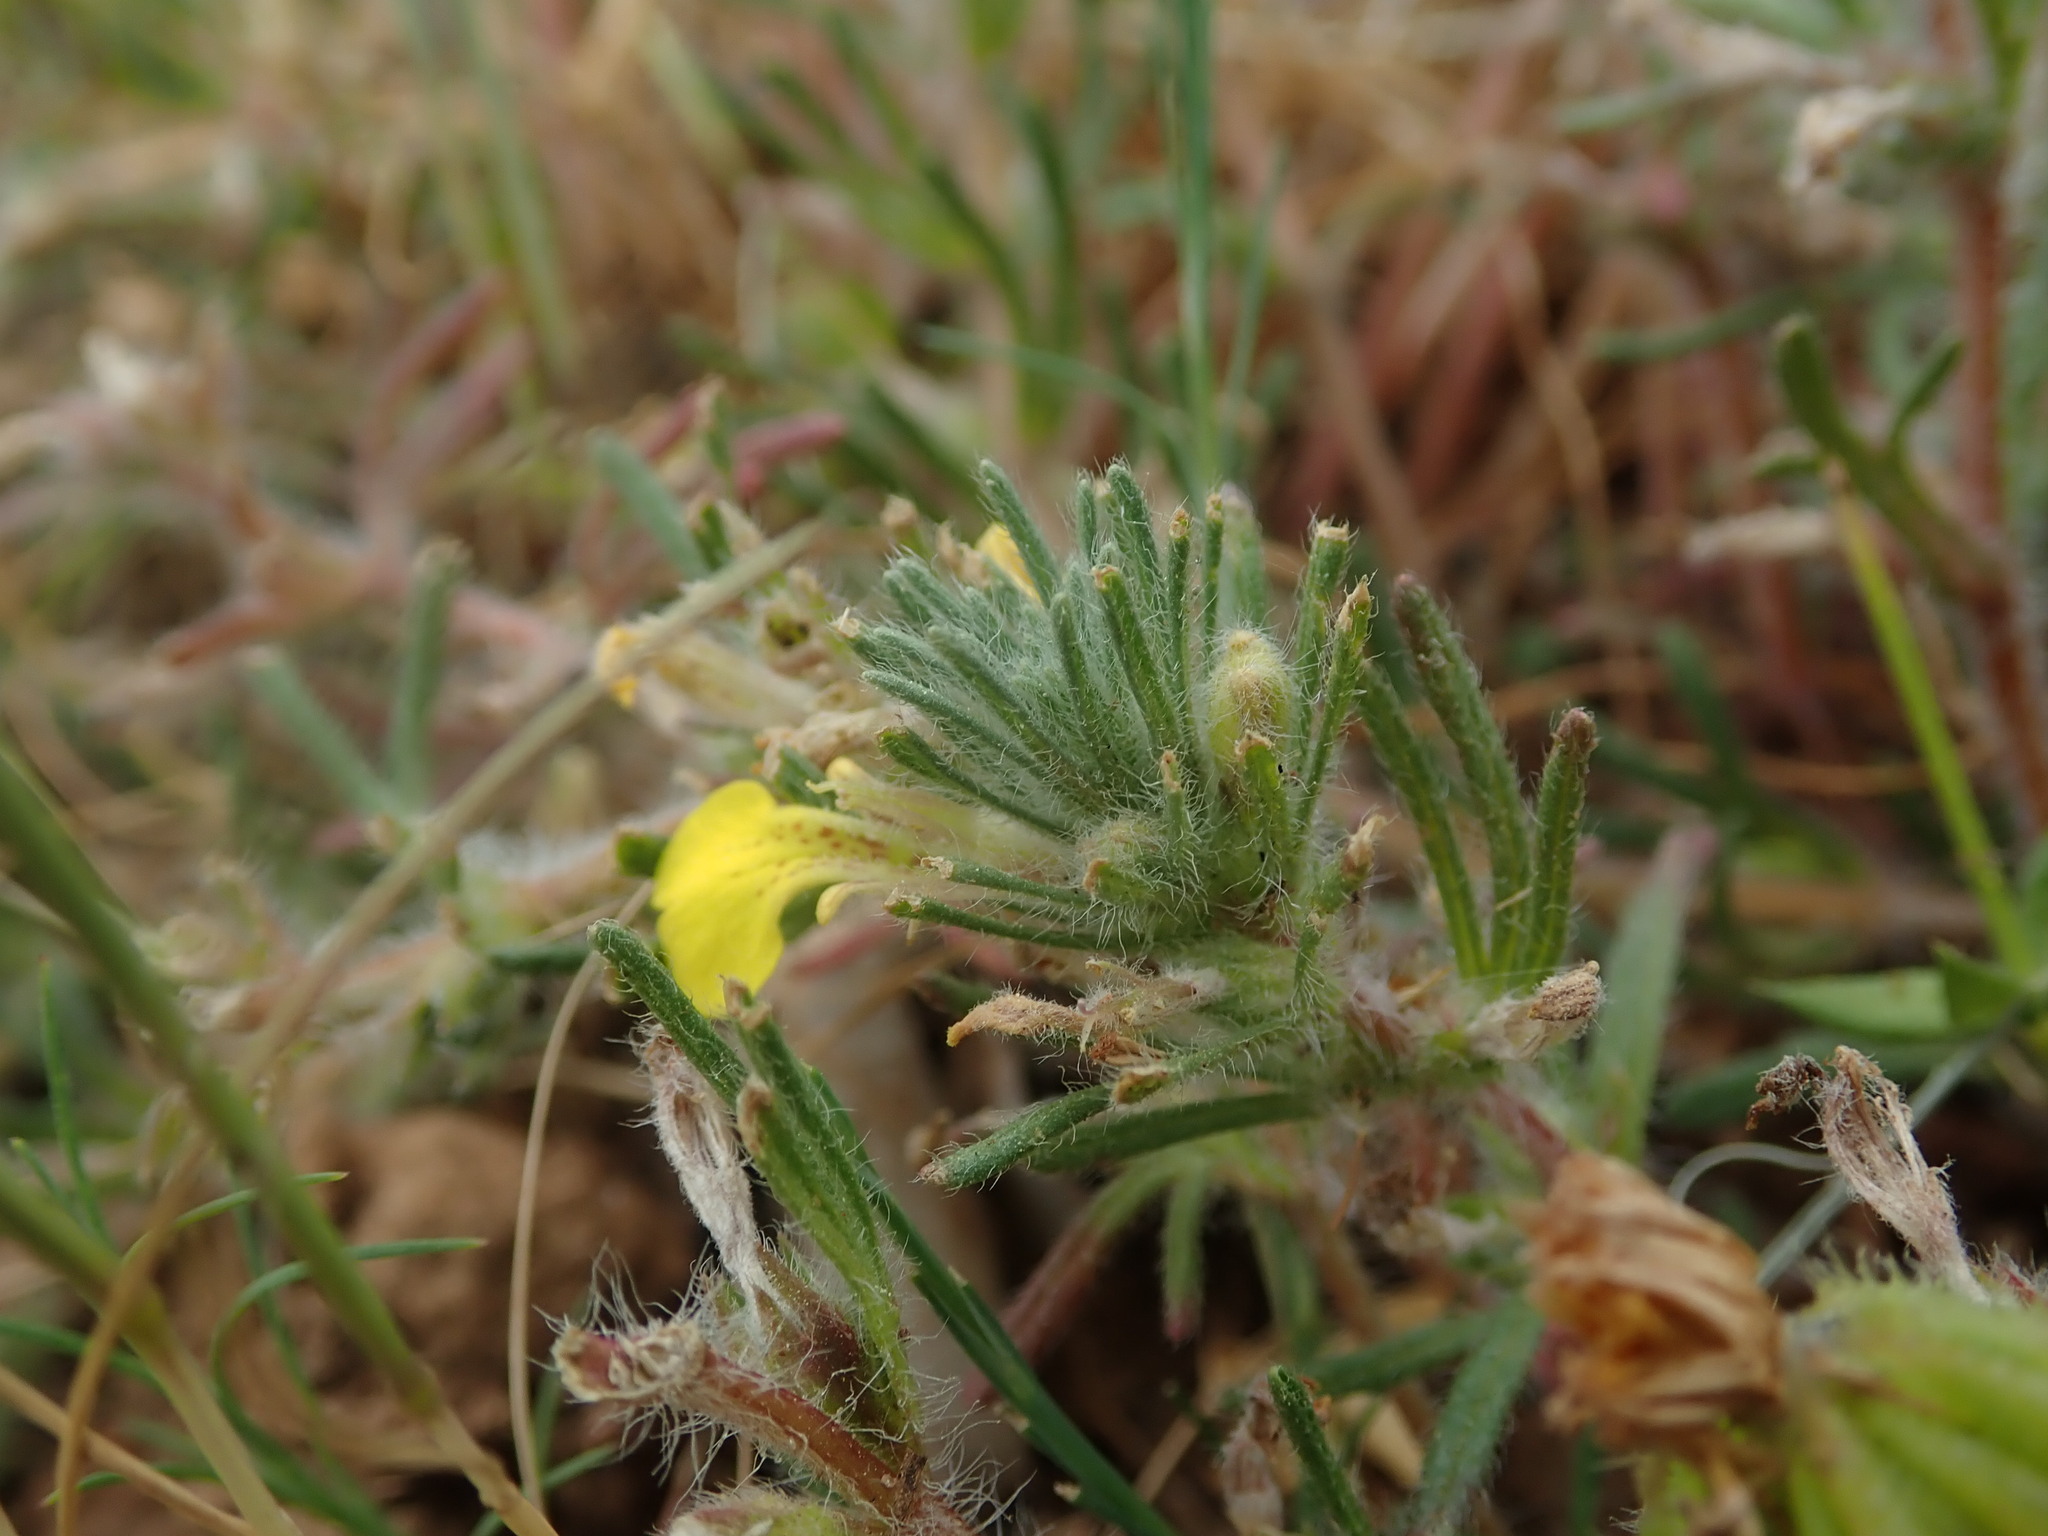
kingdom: Plantae
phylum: Tracheophyta
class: Magnoliopsida
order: Lamiales
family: Lamiaceae
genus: Ajuga
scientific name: Ajuga chamaepitys
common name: Ground-pine
